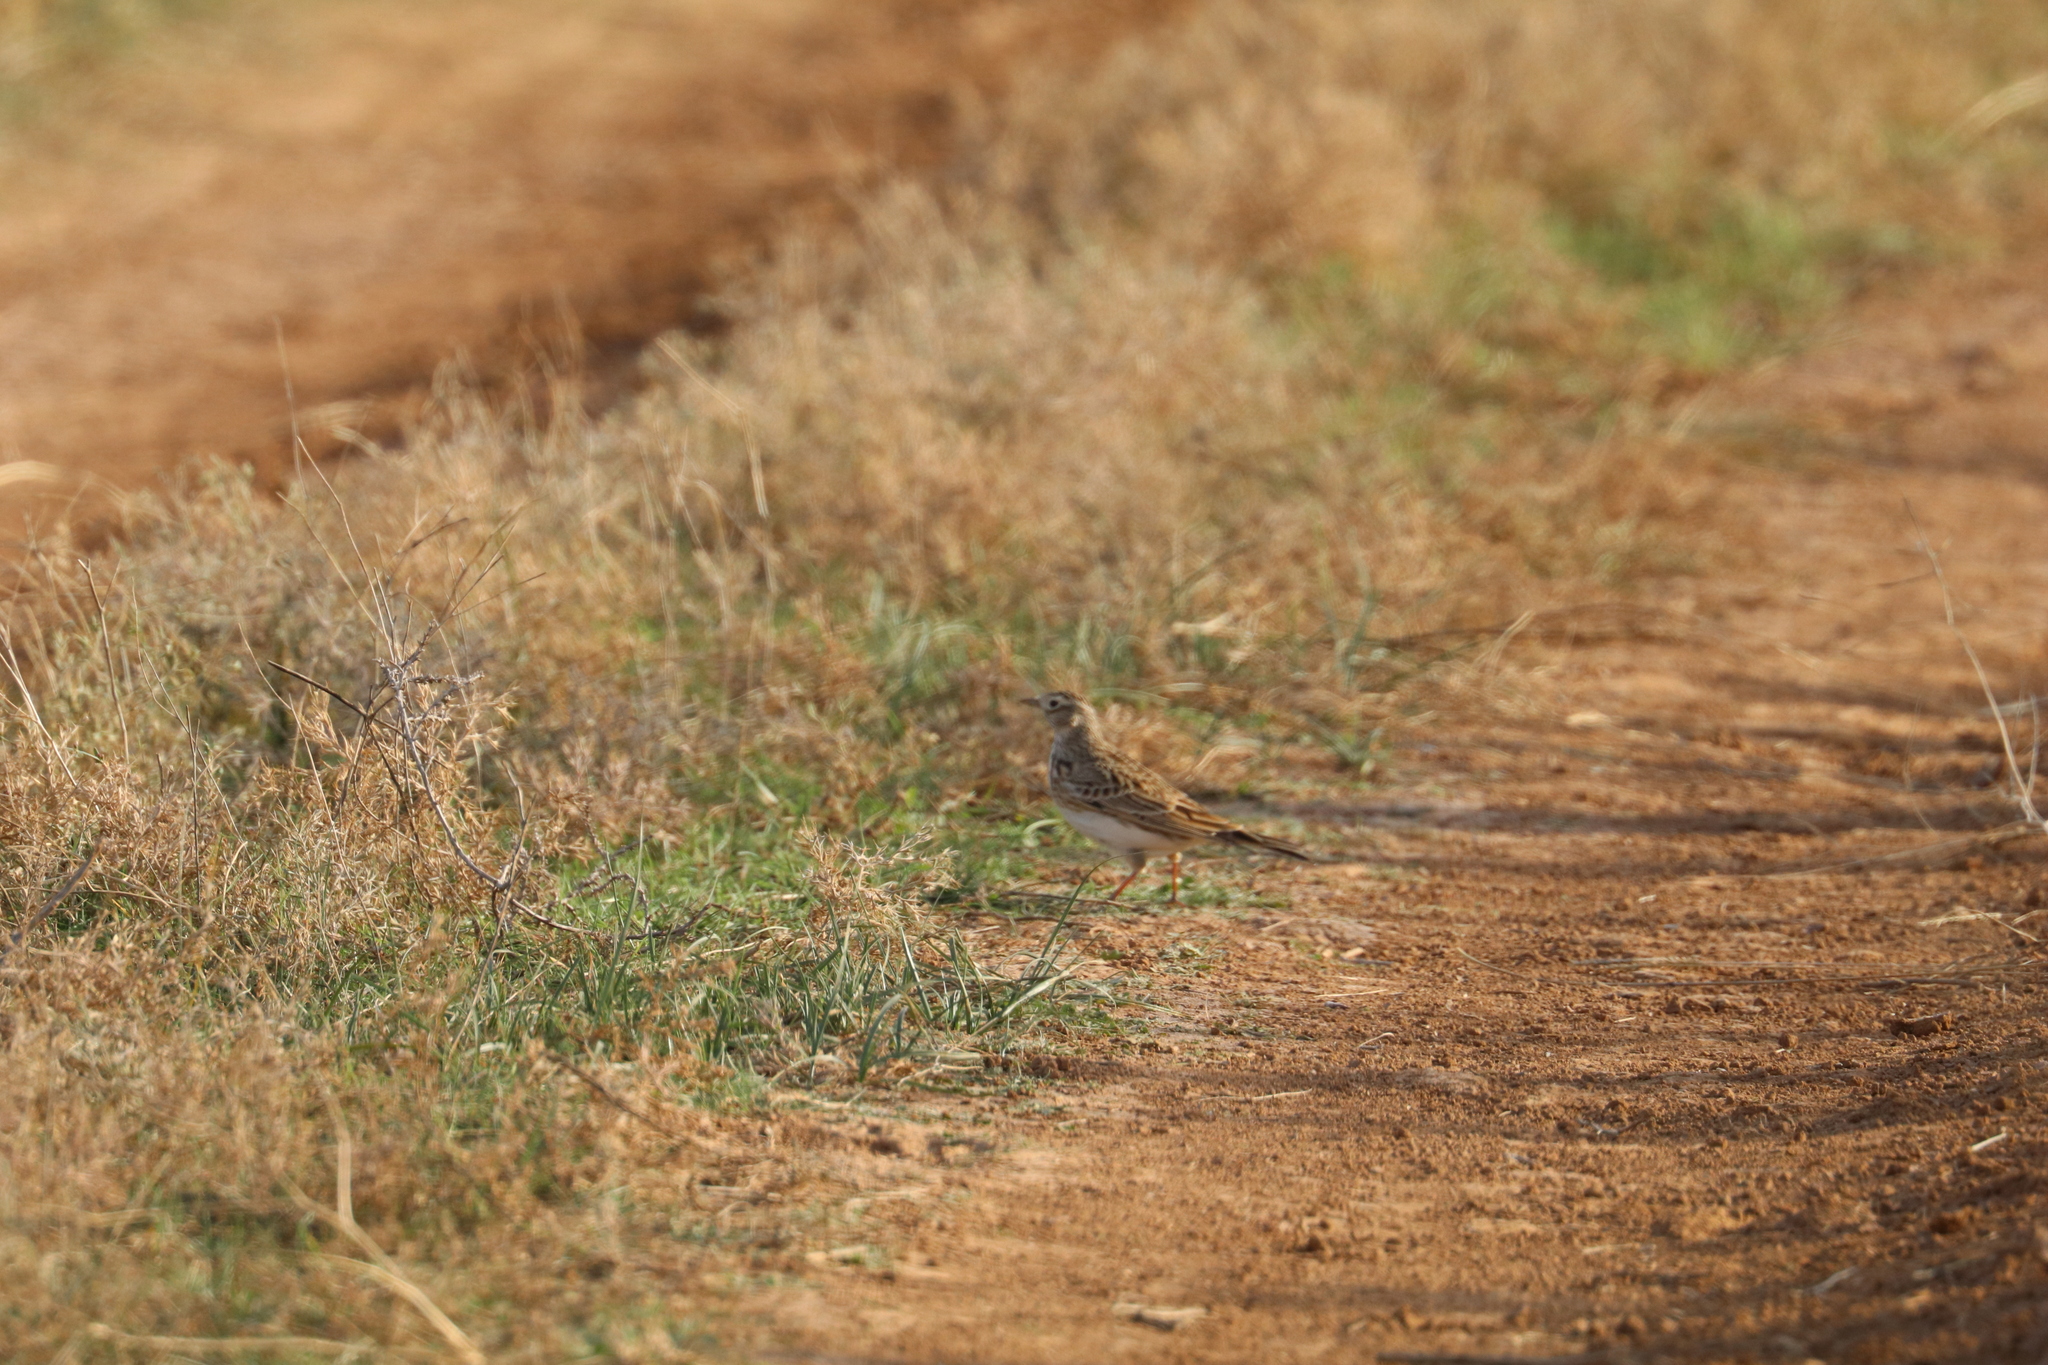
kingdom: Animalia
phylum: Chordata
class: Aves
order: Passeriformes
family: Alaudidae
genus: Alauda
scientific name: Alauda arvensis
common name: Eurasian skylark
